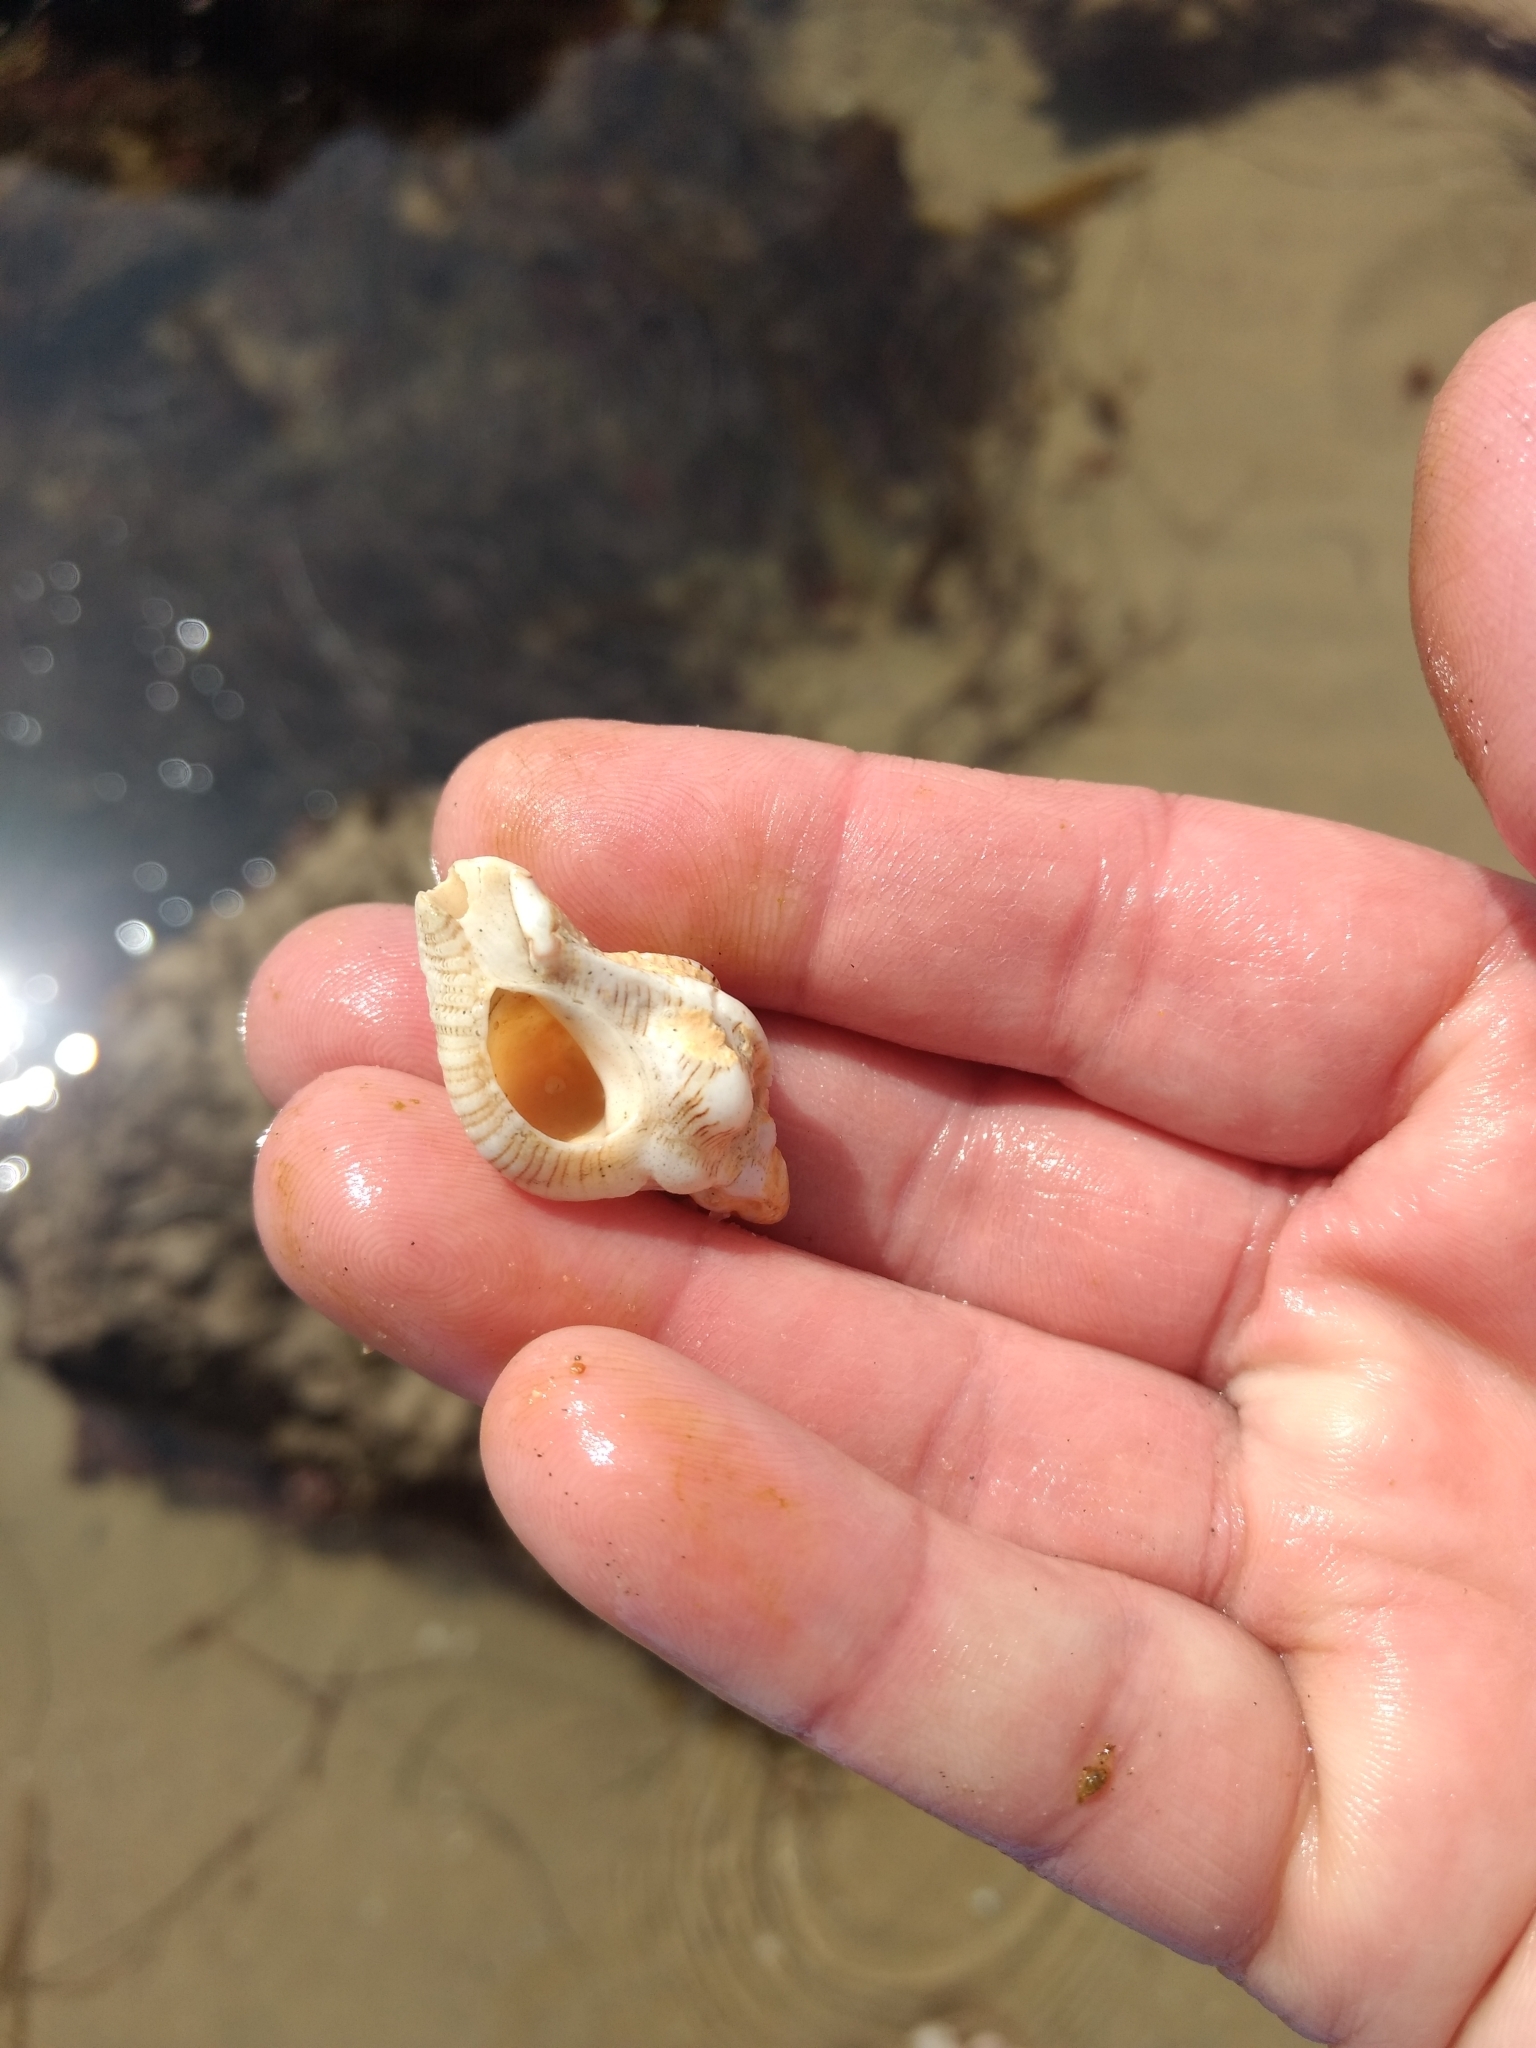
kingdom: Animalia
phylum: Mollusca
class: Gastropoda
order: Neogastropoda
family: Muricidae
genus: Pteropurpura
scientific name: Pteropurpura festiva
